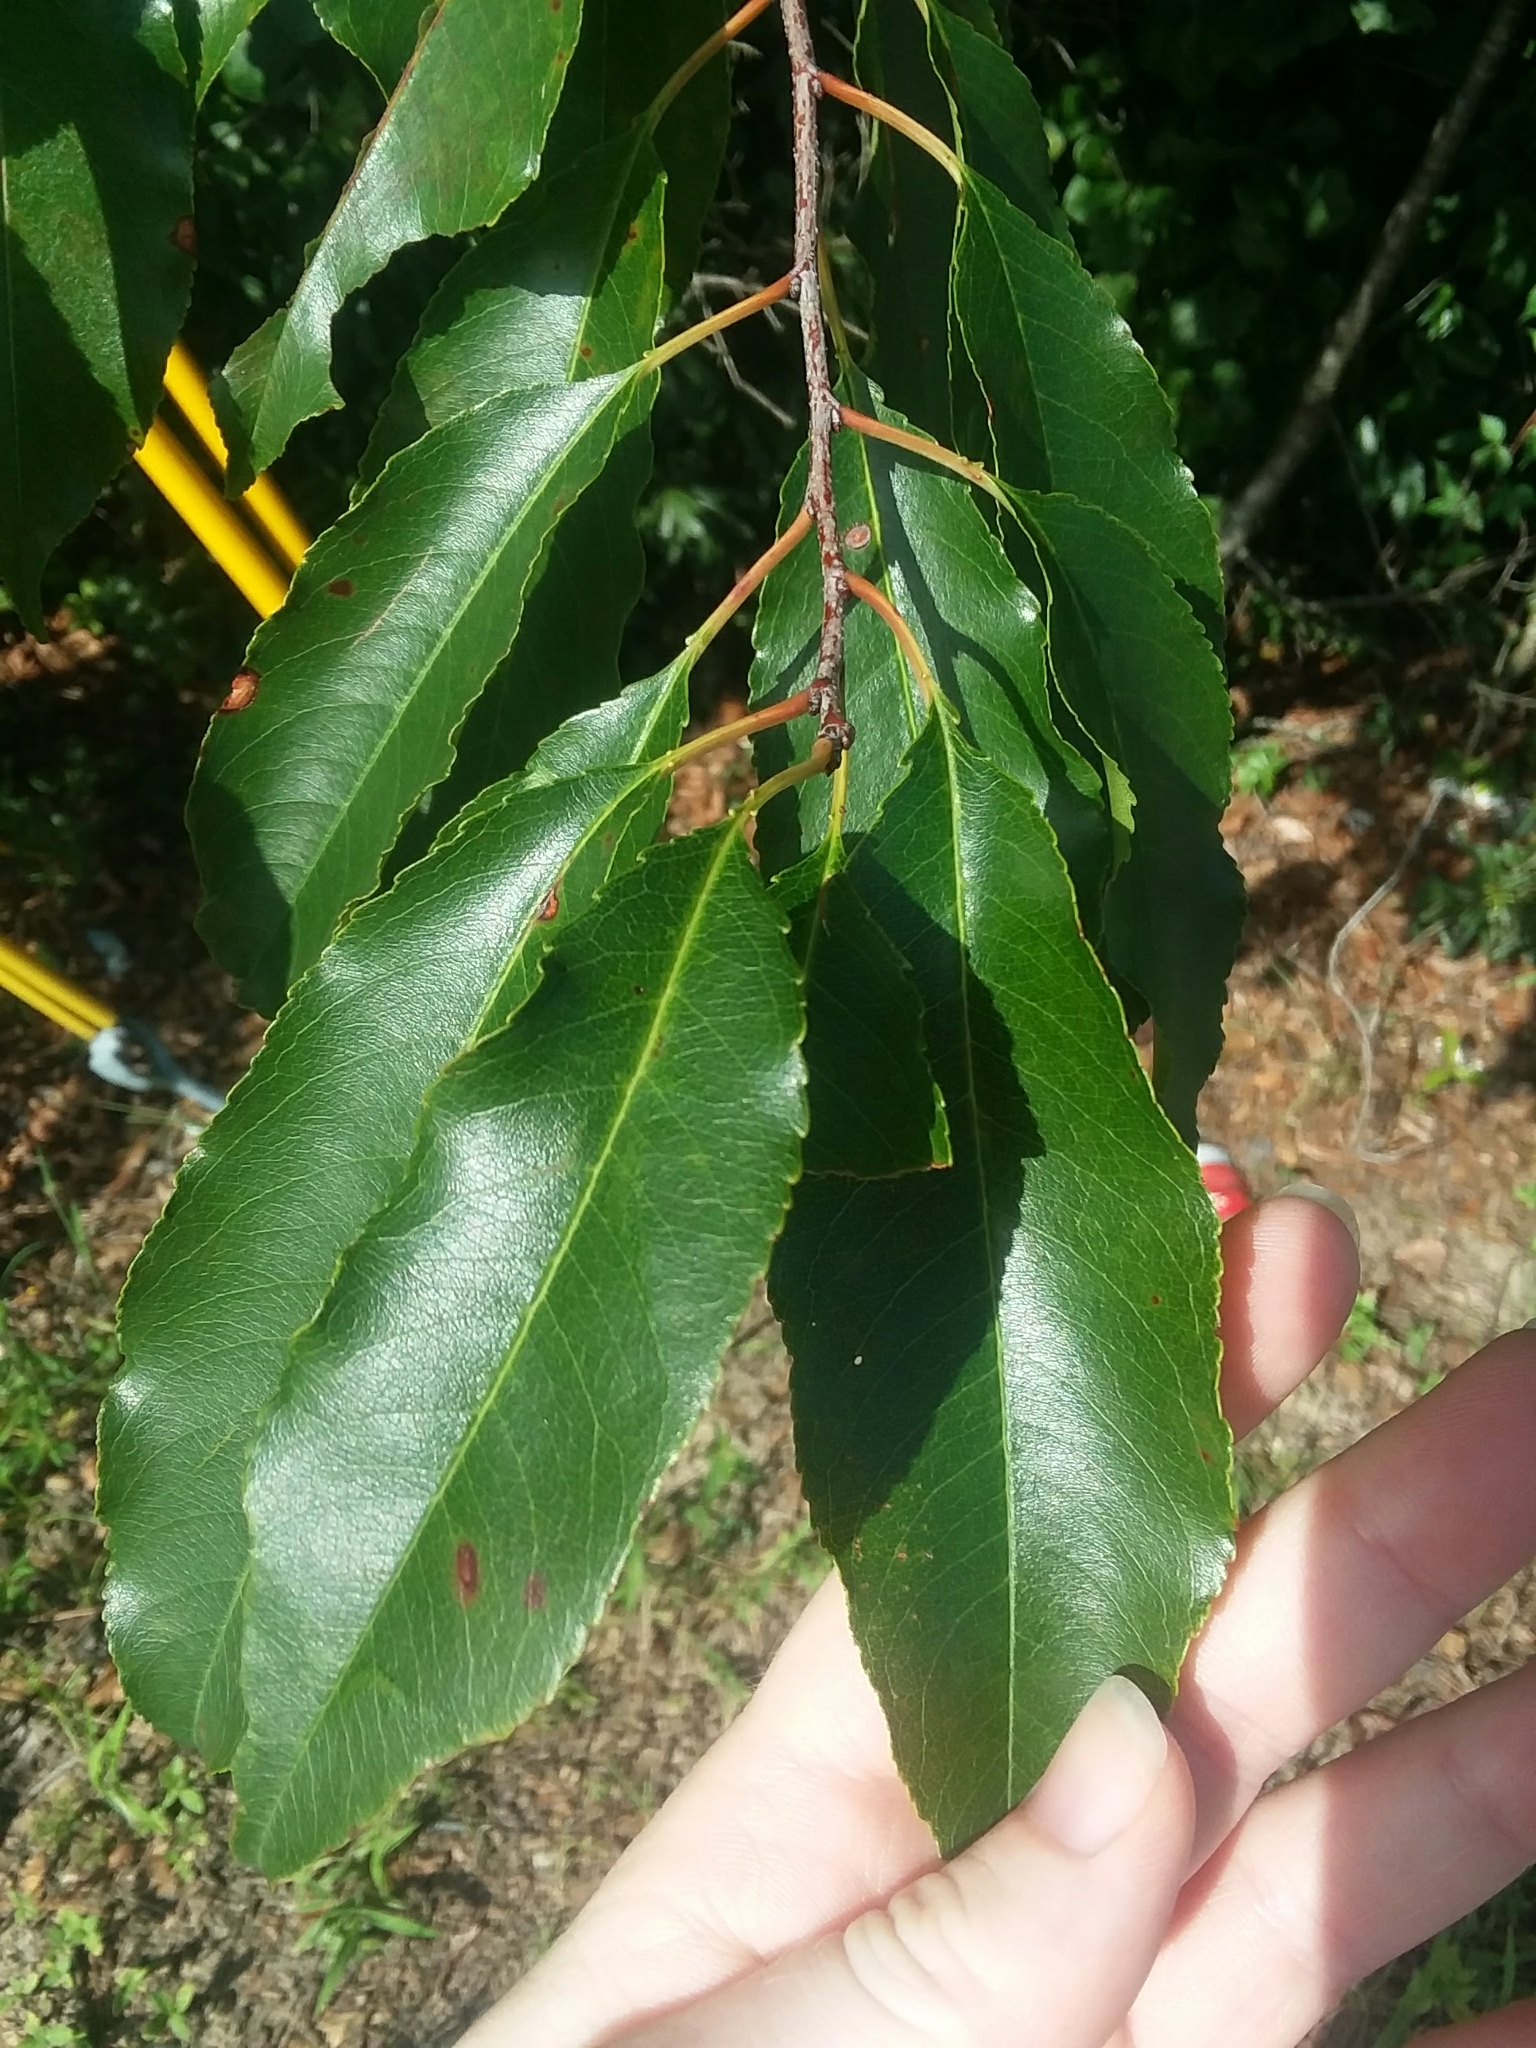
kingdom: Plantae
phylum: Tracheophyta
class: Magnoliopsida
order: Rosales
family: Rosaceae
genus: Prunus
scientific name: Prunus serotina
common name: Black cherry
